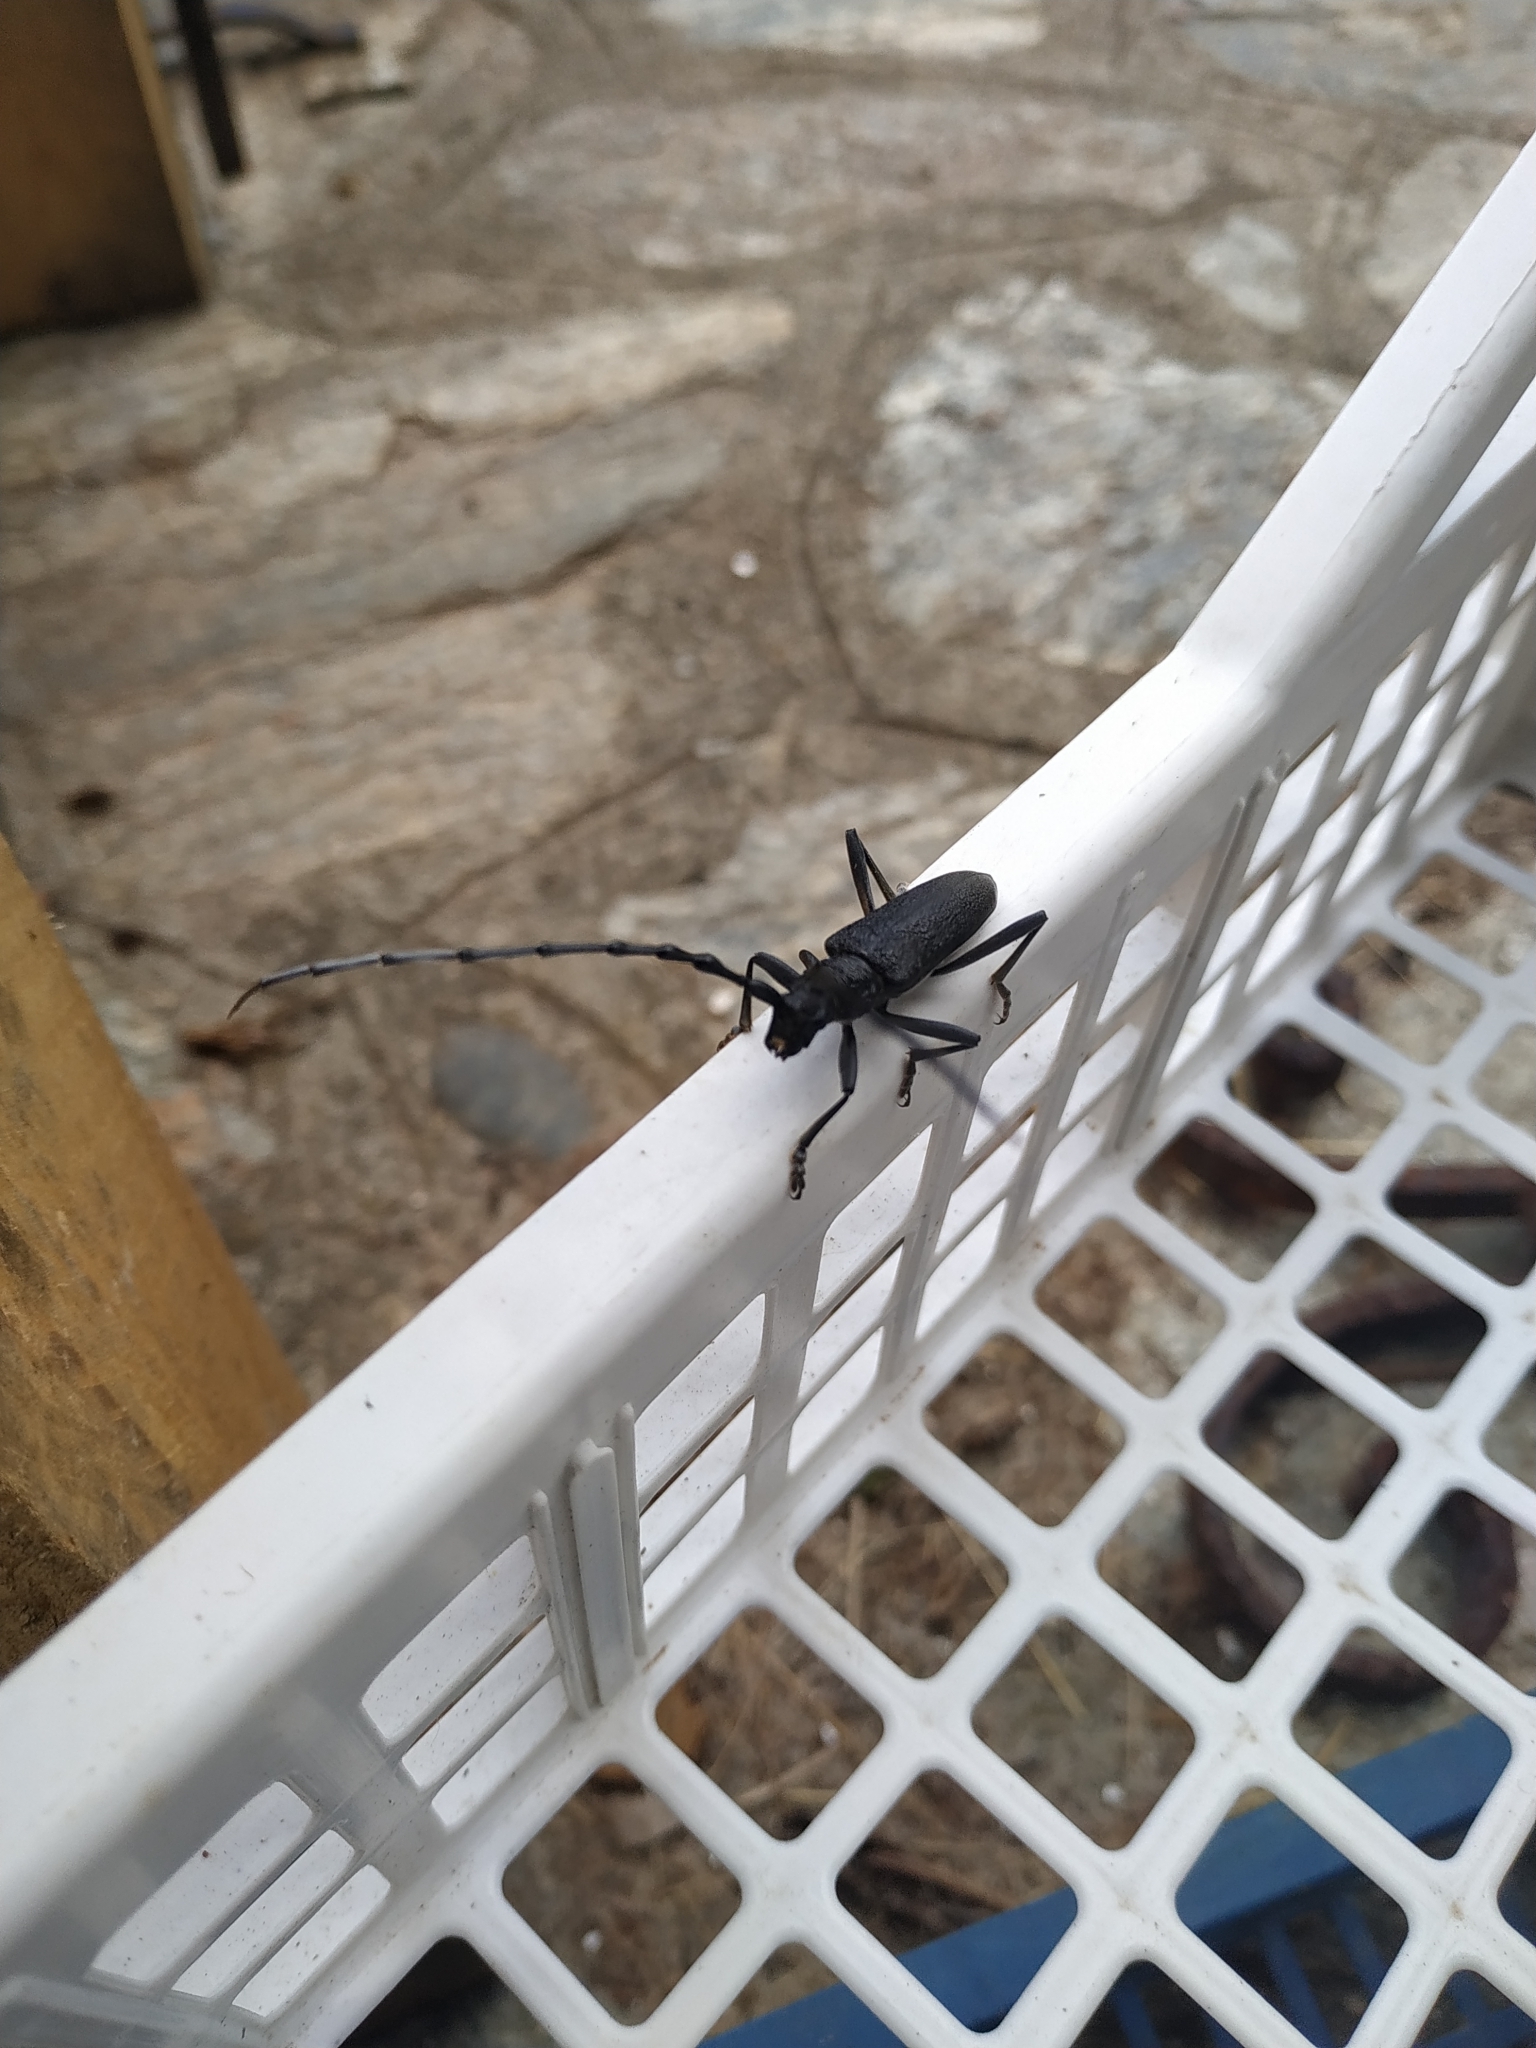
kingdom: Animalia
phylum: Arthropoda
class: Insecta
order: Coleoptera
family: Cerambycidae
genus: Cerambyx
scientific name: Cerambyx cerdo
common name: Cerambyx longicorn
